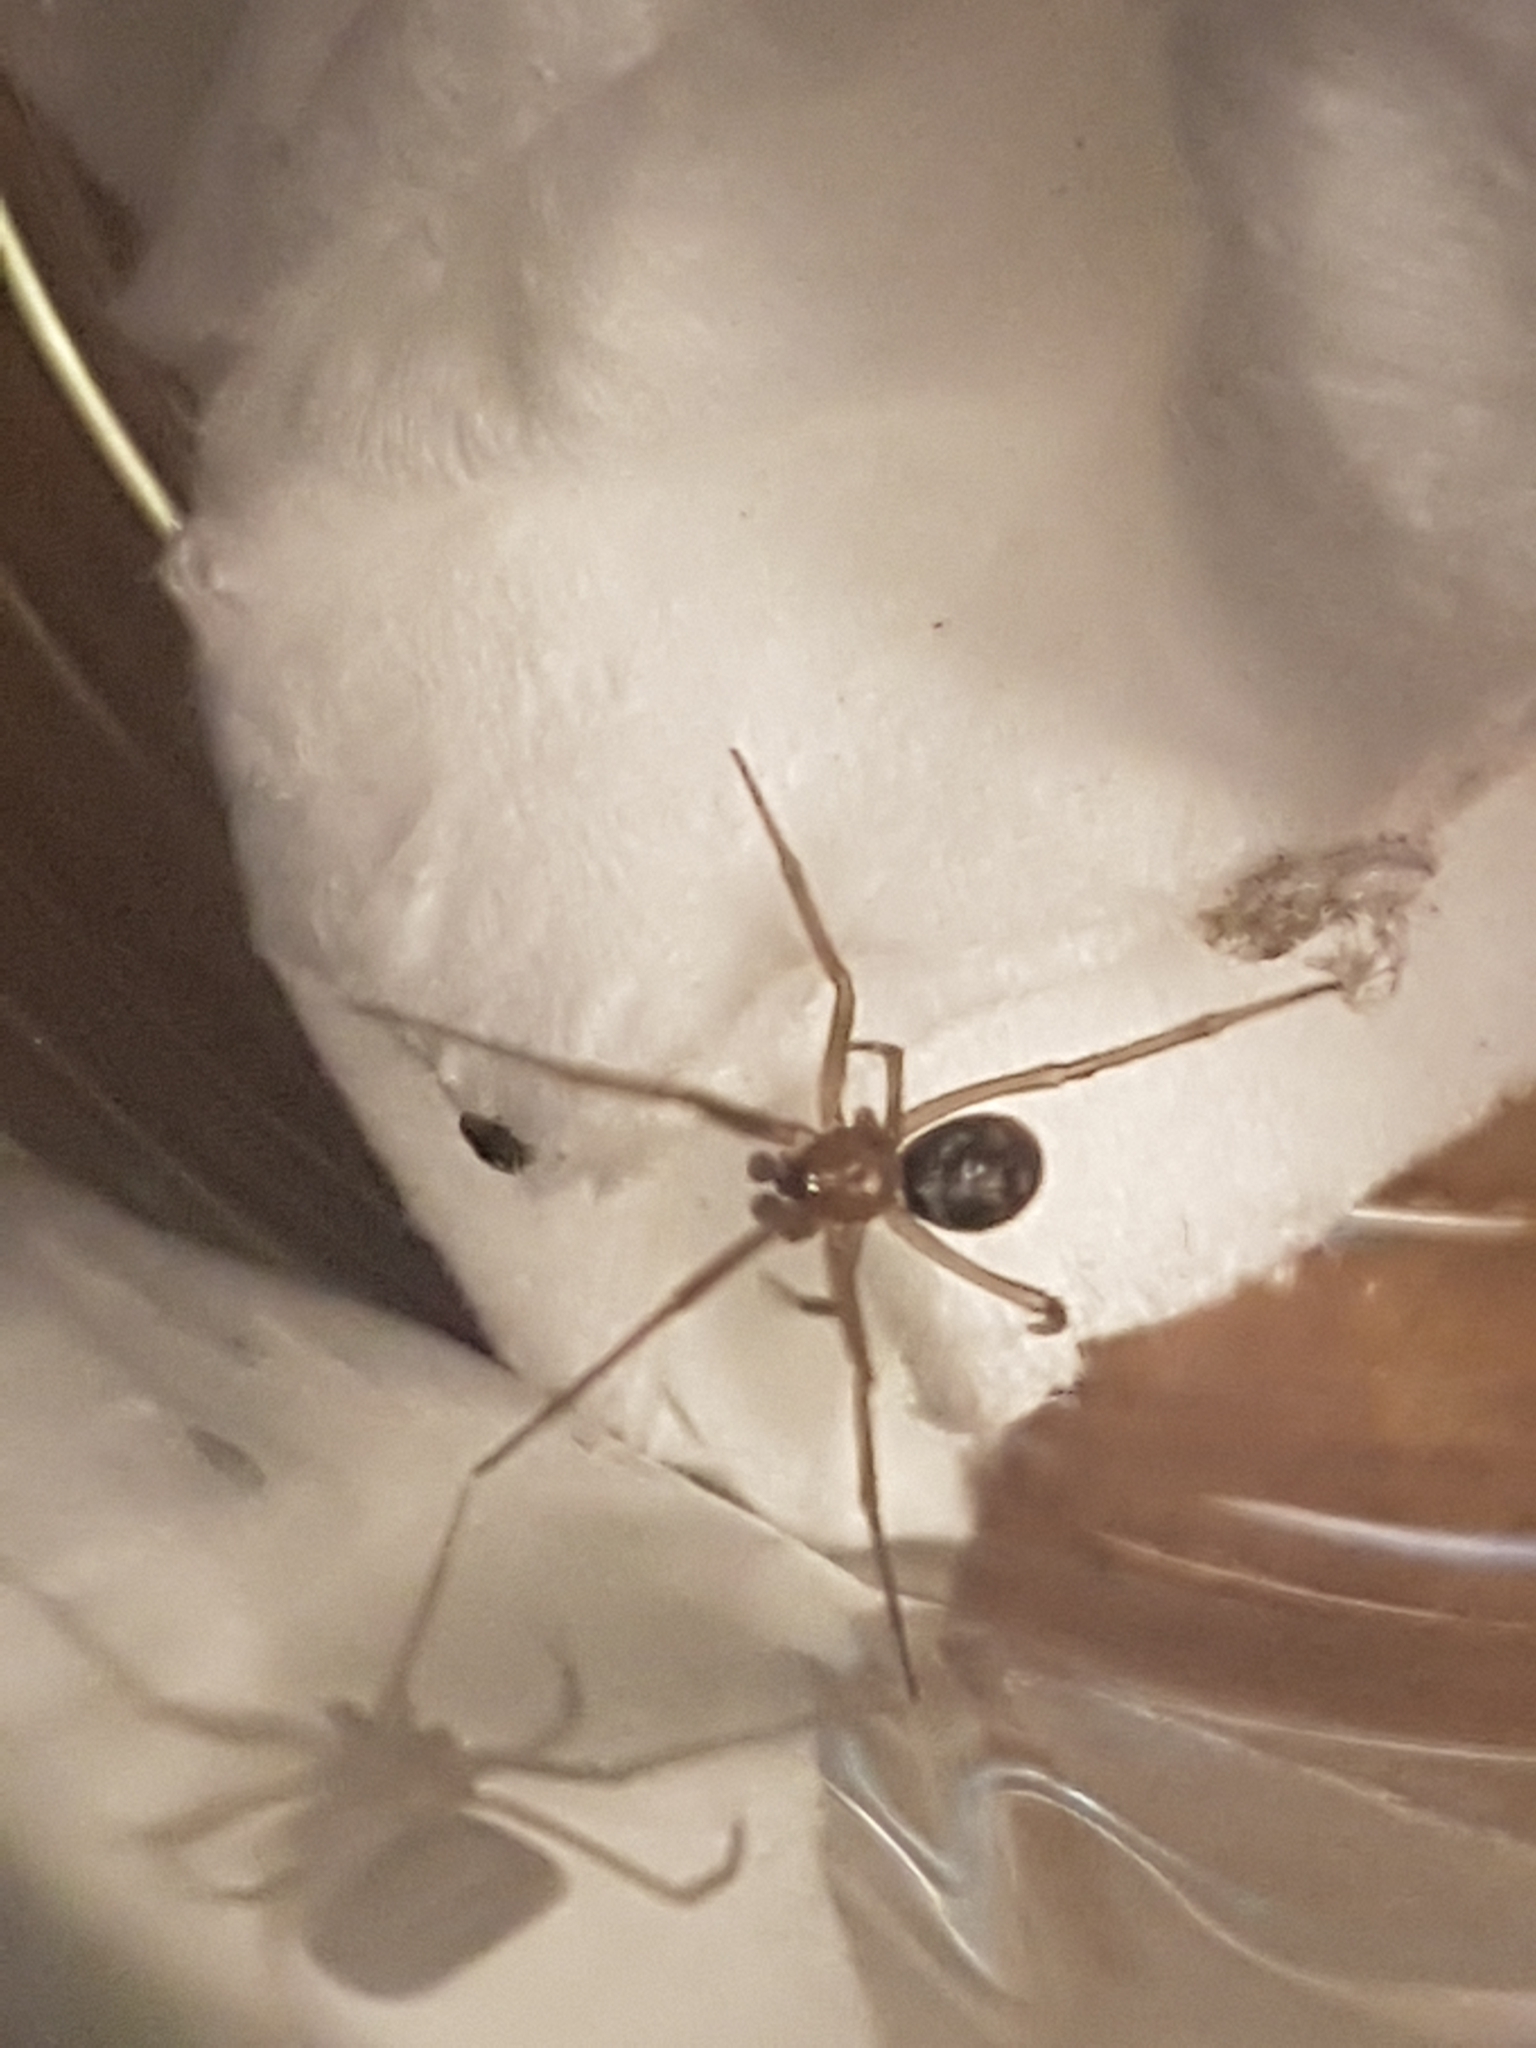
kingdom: Animalia
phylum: Arthropoda
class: Arachnida
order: Araneae
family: Theridiidae
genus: Steatoda
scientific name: Steatoda grossa
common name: False black widow
